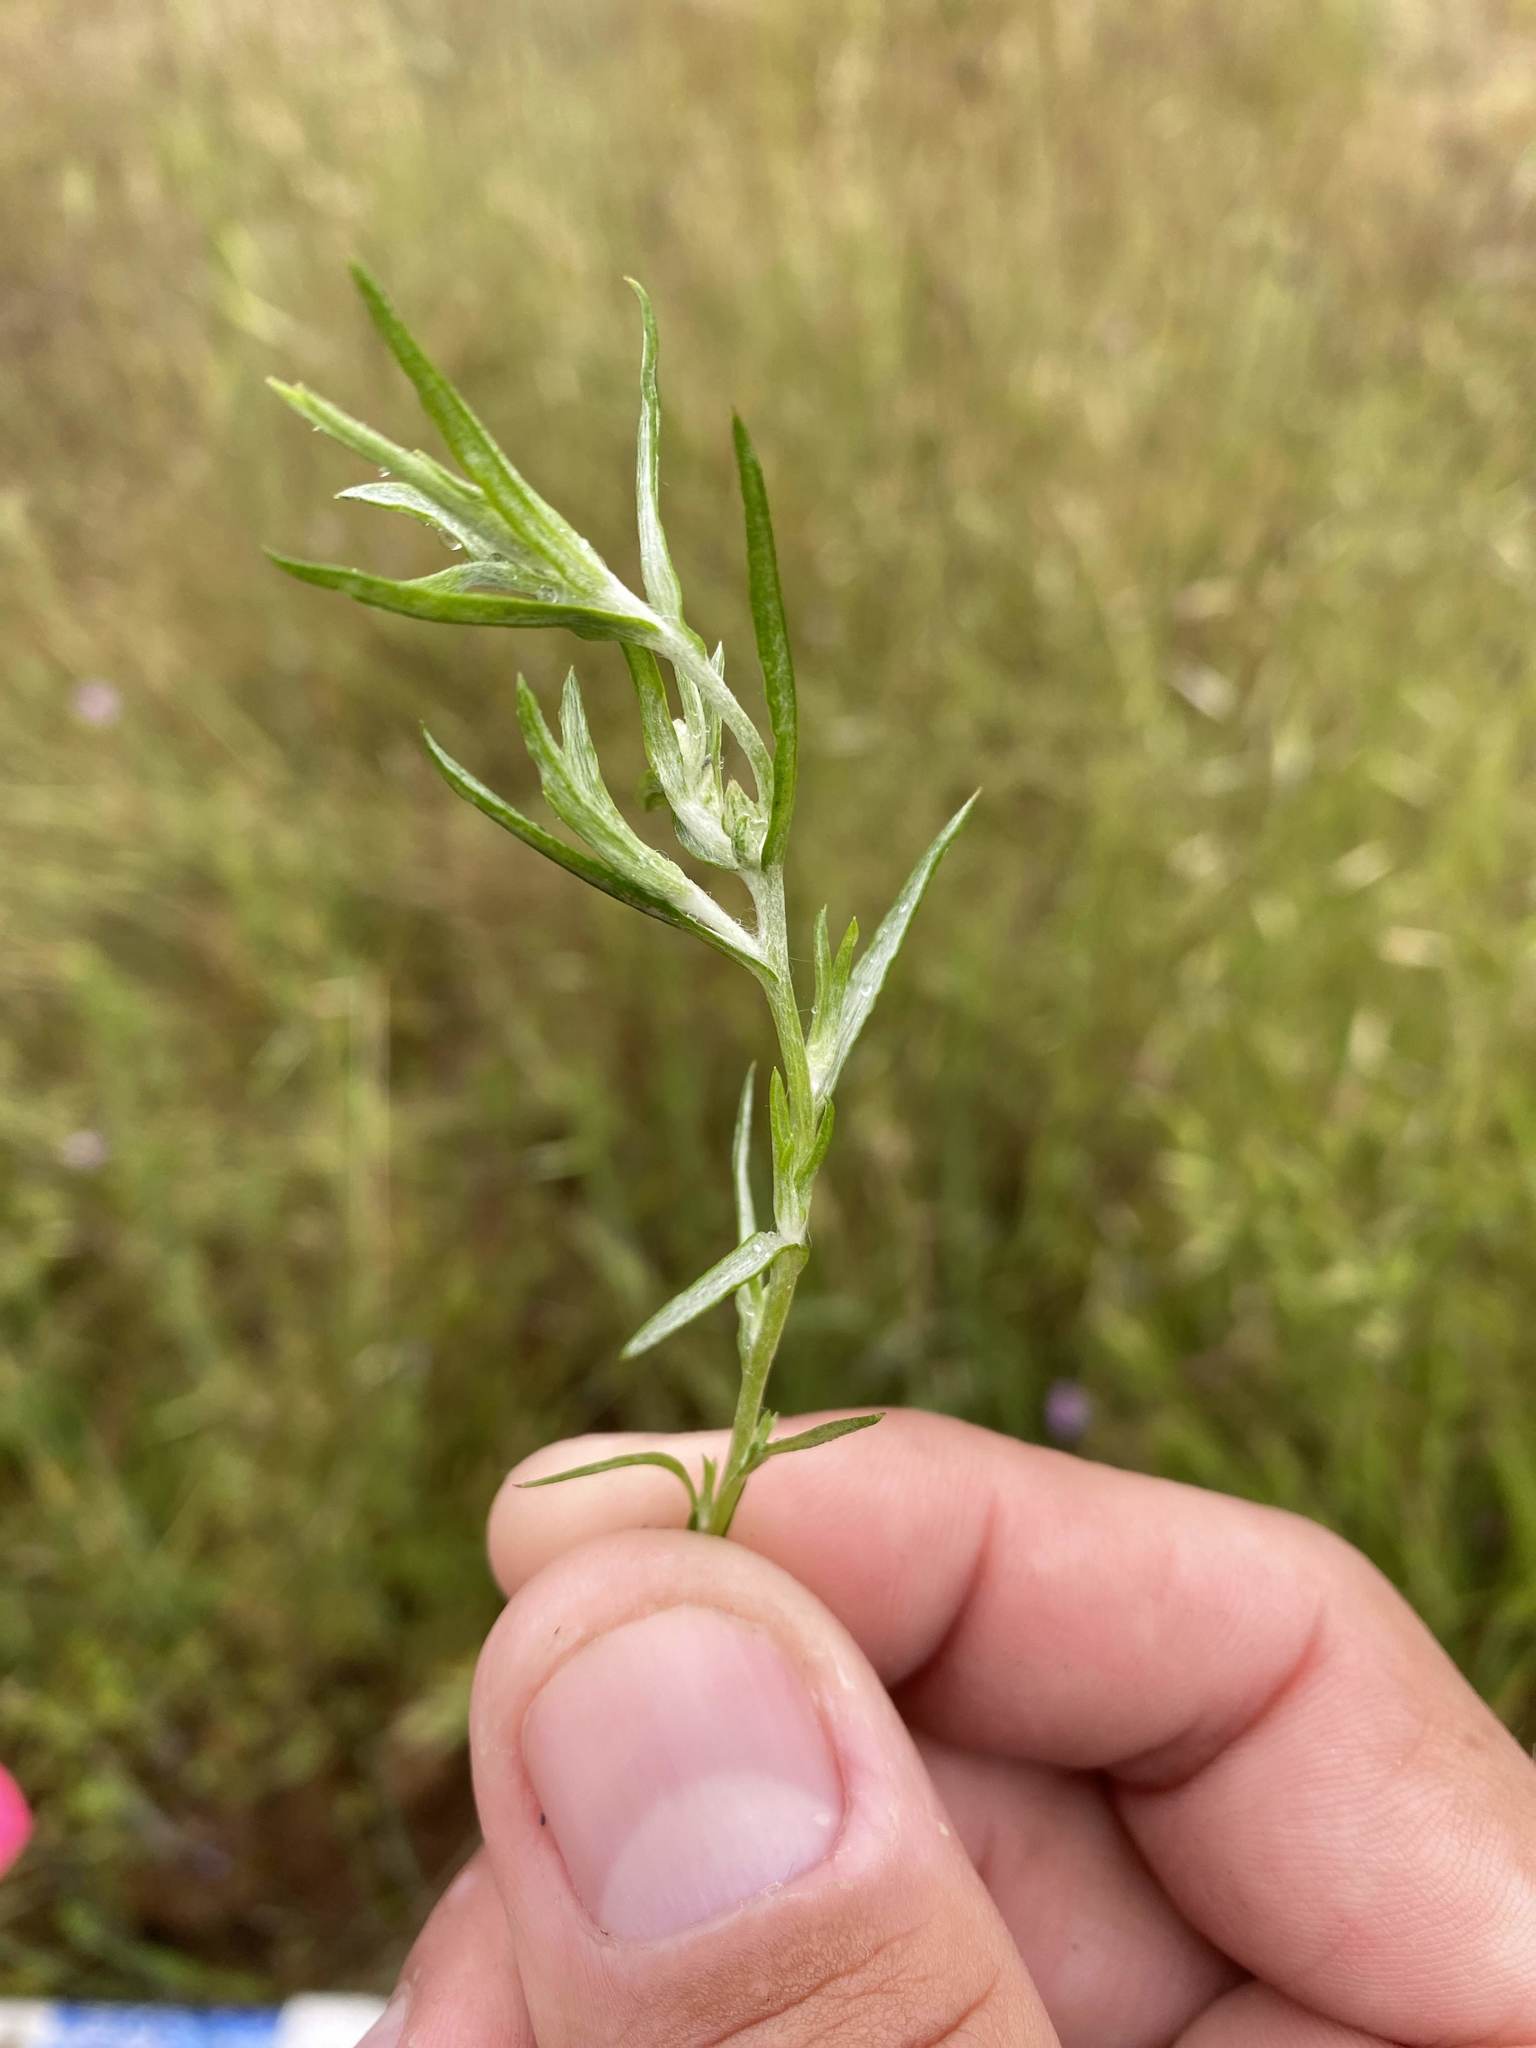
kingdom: Plantae
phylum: Tracheophyta
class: Magnoliopsida
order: Asterales
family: Asteraceae
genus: Logfia
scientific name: Logfia gallica
